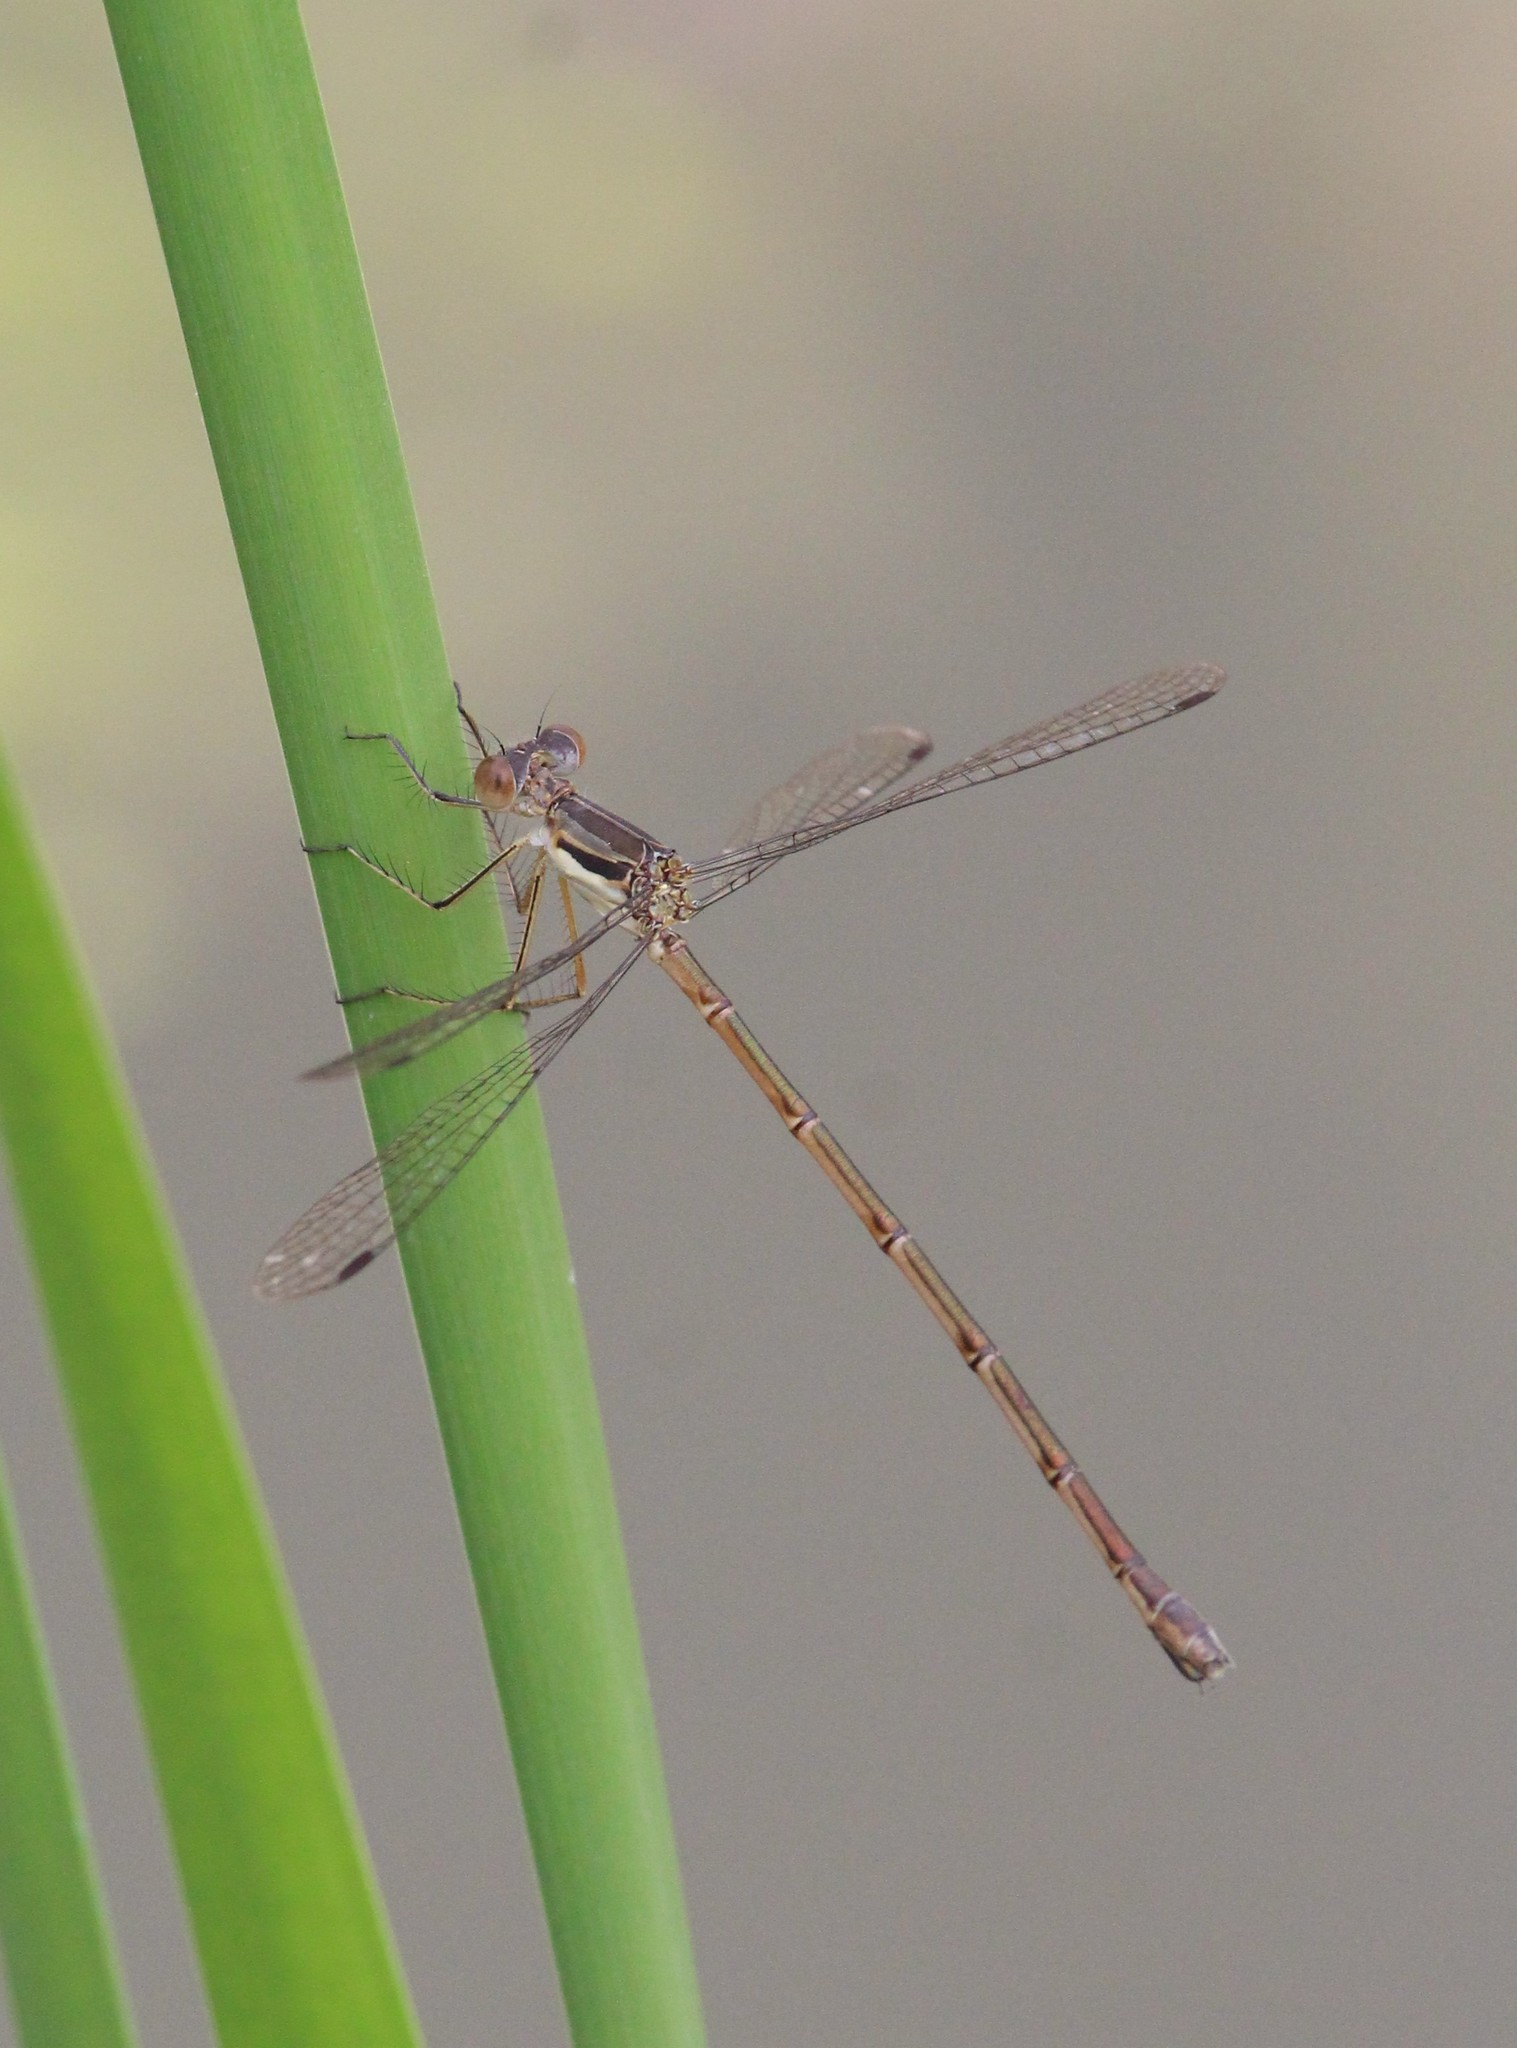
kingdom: Animalia
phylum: Arthropoda
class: Insecta
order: Odonata
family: Lestidae
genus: Lestes
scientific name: Lestes rectangularis
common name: Slender spreadwing
